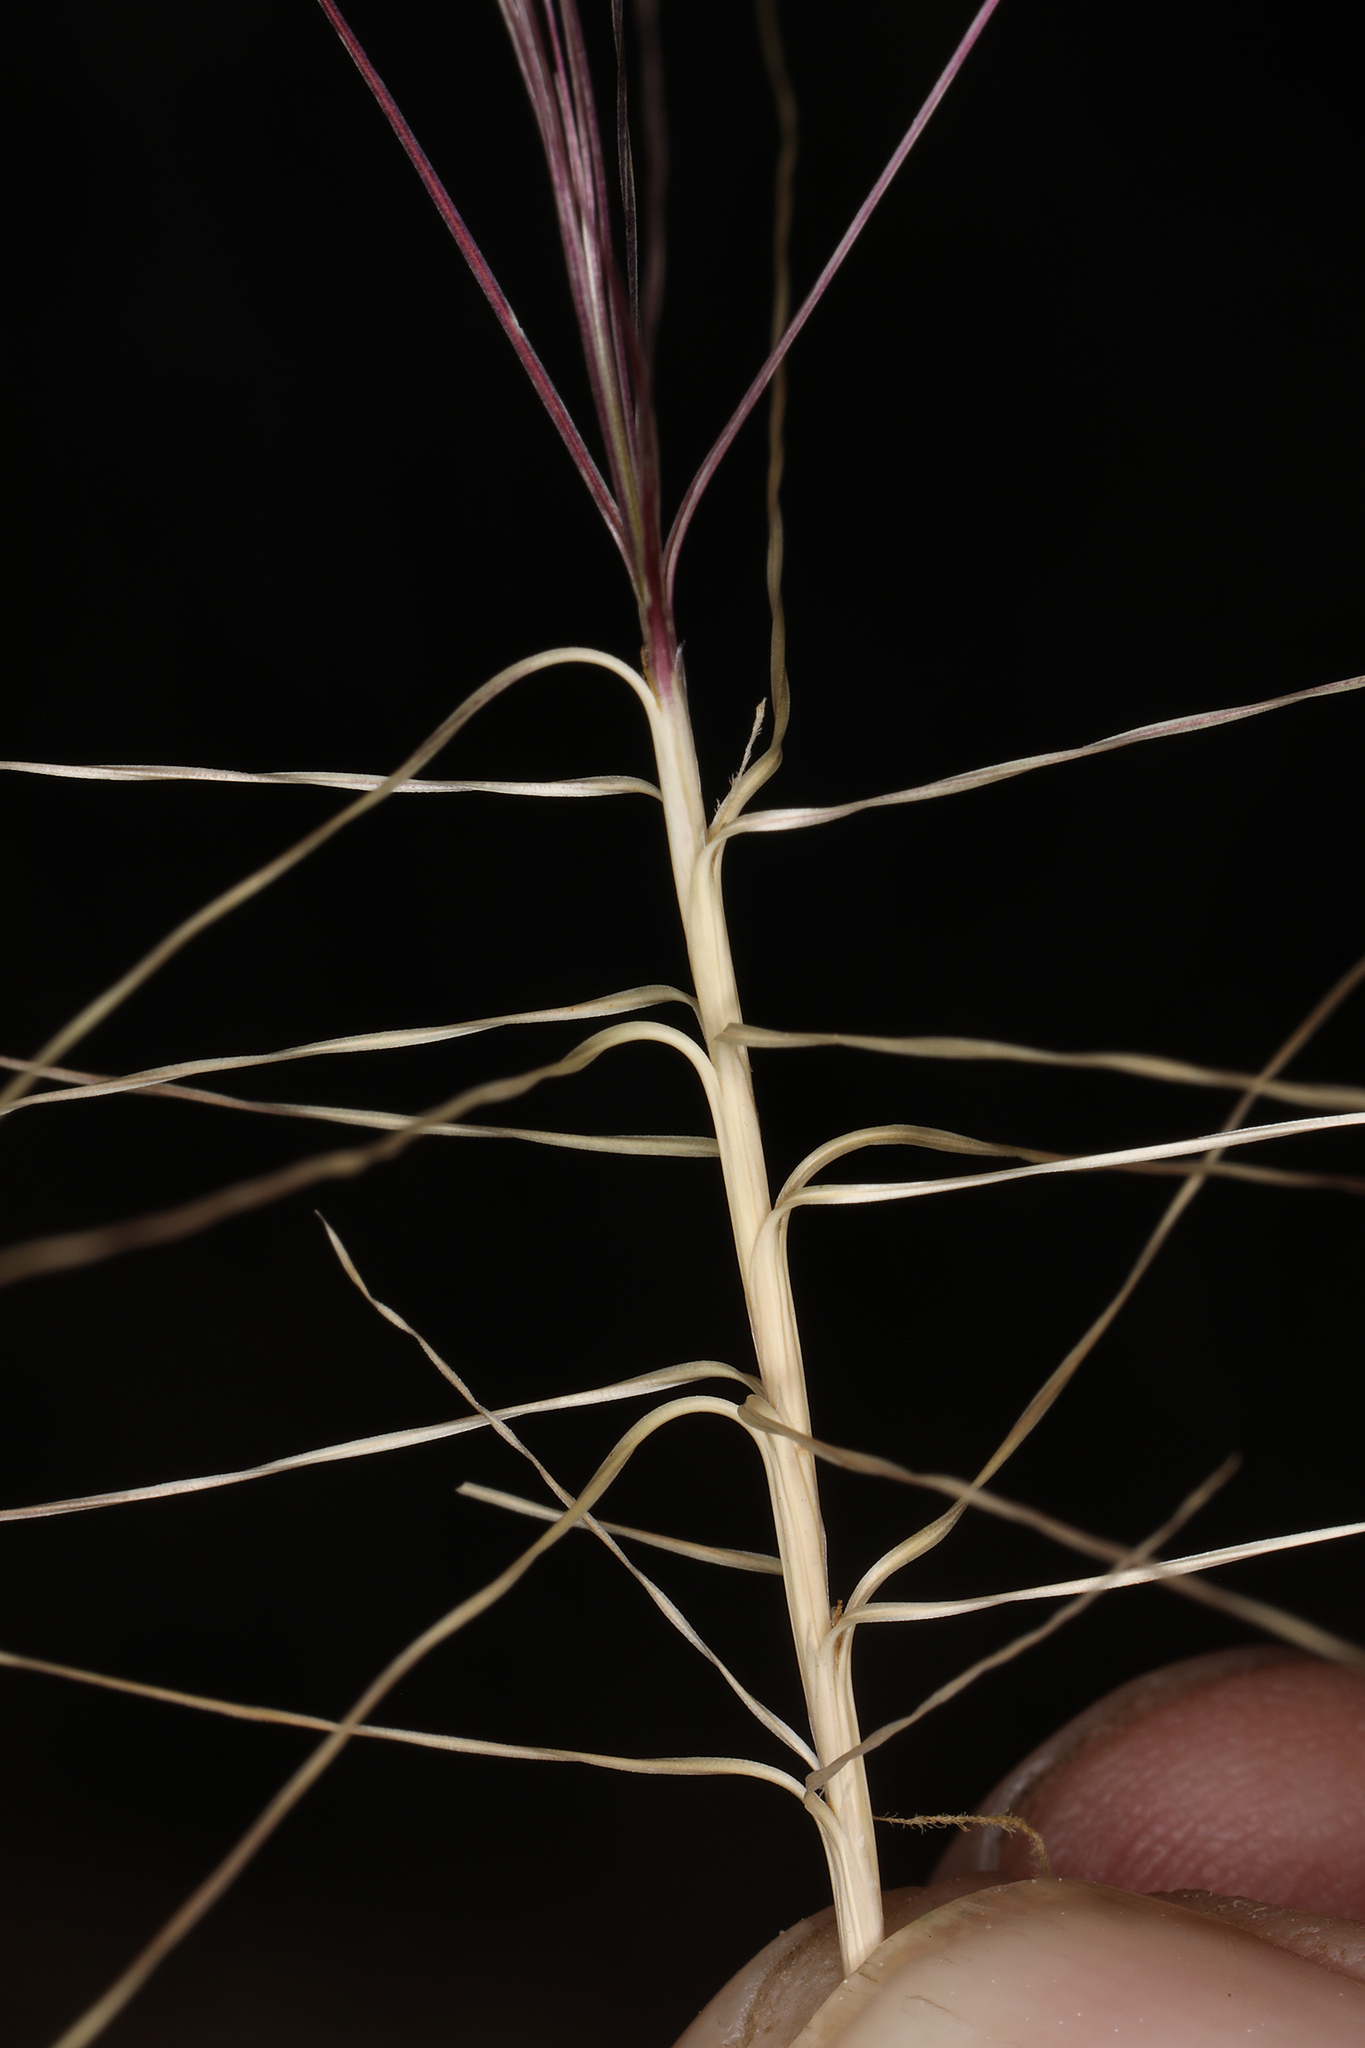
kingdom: Plantae
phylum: Tracheophyta
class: Liliopsida
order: Poales
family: Poaceae
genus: Scleropogon
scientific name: Scleropogon brevifolius
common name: Burro grass
